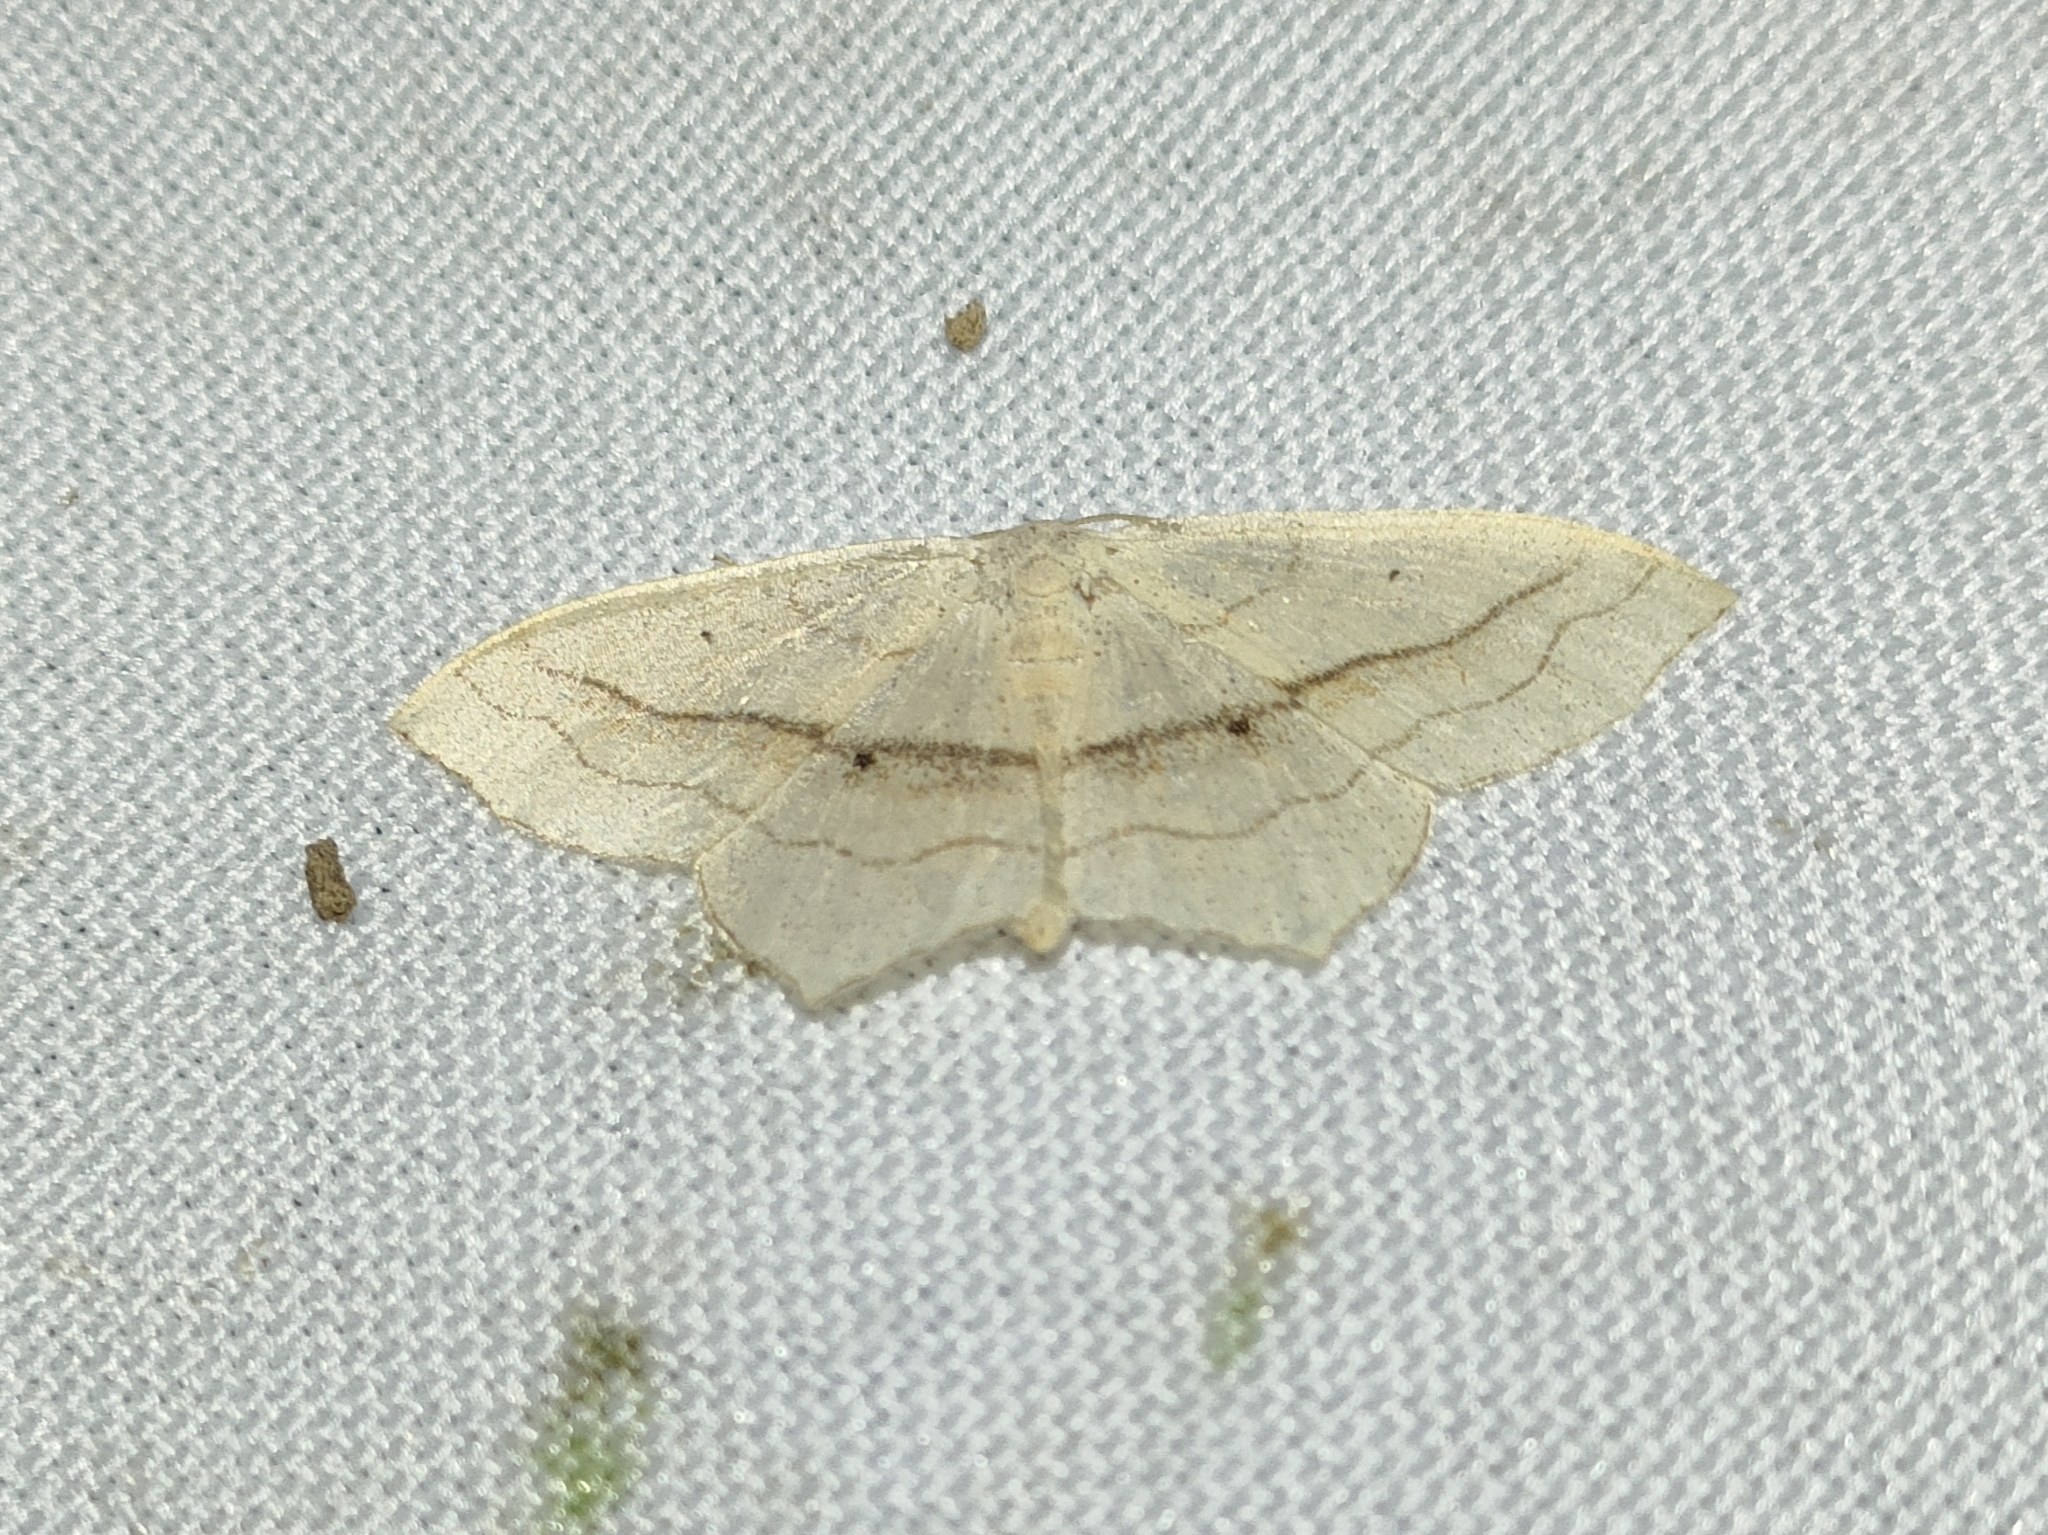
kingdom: Animalia
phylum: Arthropoda
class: Insecta
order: Lepidoptera
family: Geometridae
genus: Scopula
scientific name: Scopula imitaria
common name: Small blood-vein
